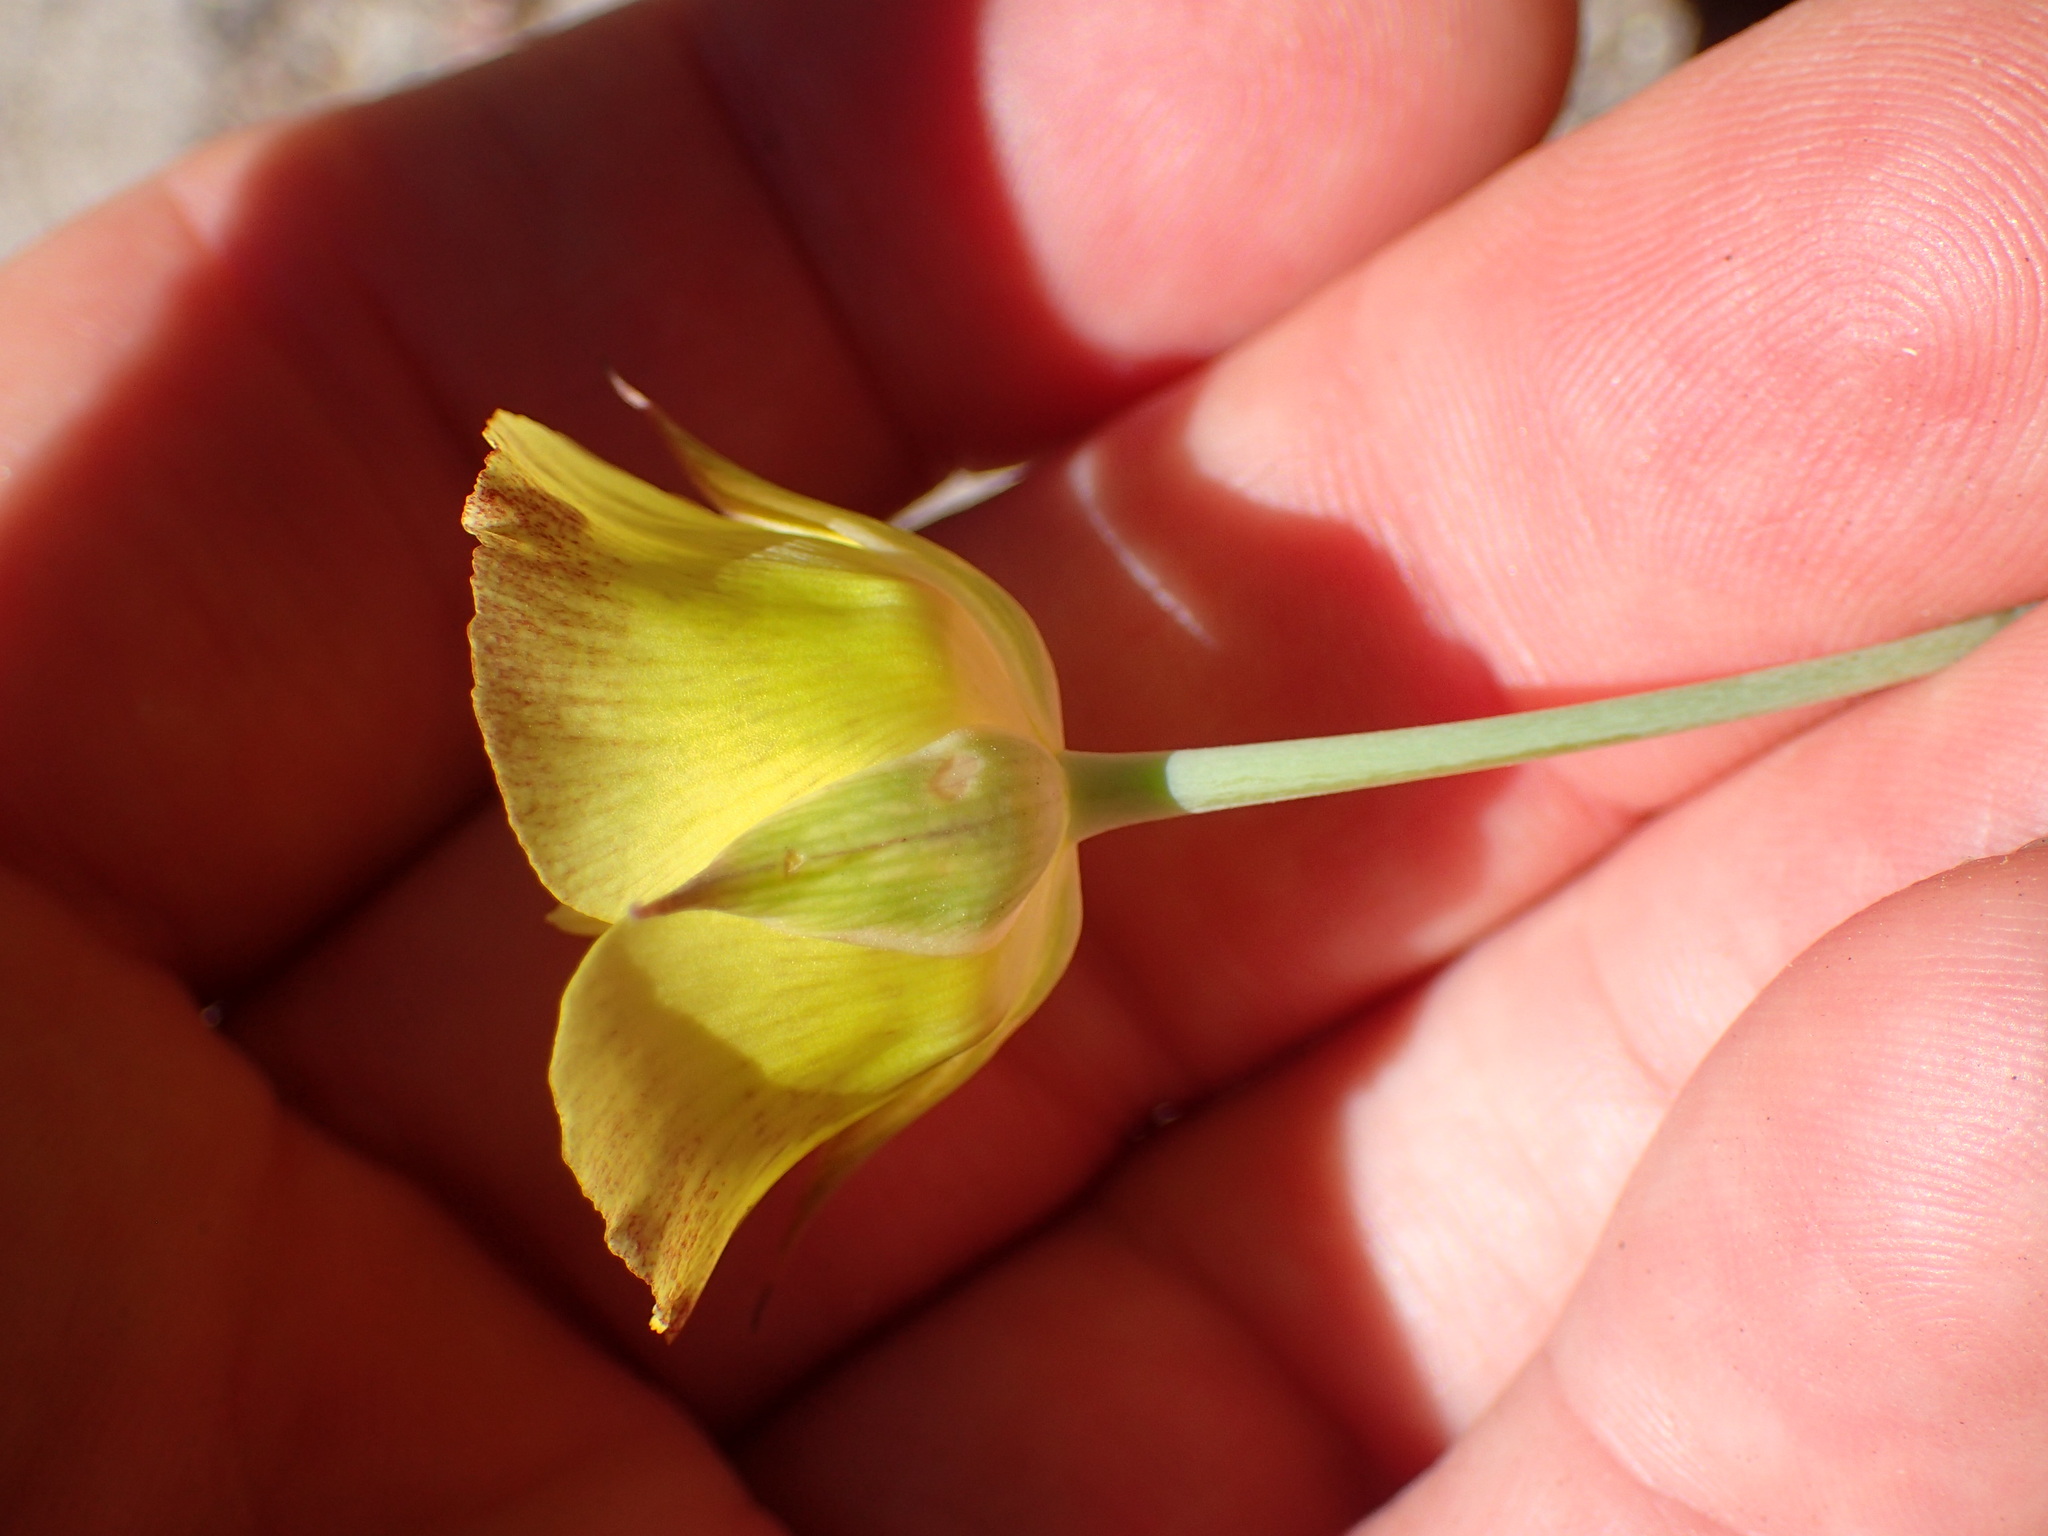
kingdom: Plantae
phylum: Tracheophyta
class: Liliopsida
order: Liliales
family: Liliaceae
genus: Calochortus
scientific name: Calochortus luteus
